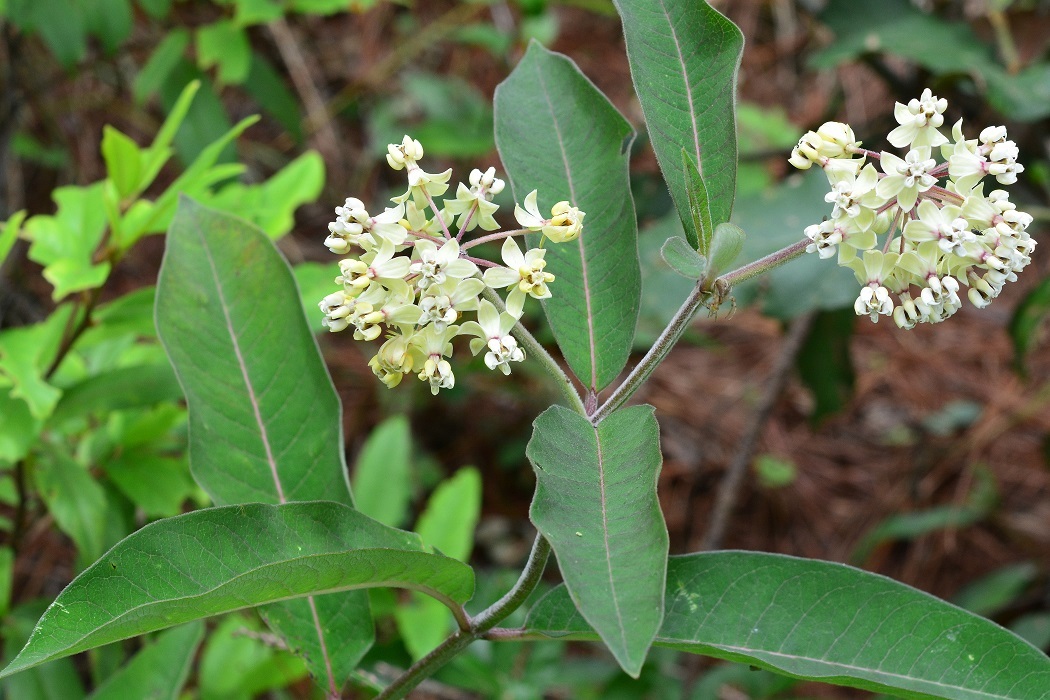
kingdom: Plantae
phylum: Tracheophyta
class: Magnoliopsida
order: Gentianales
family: Apocynaceae
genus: Asclepias
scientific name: Asclepias similis
